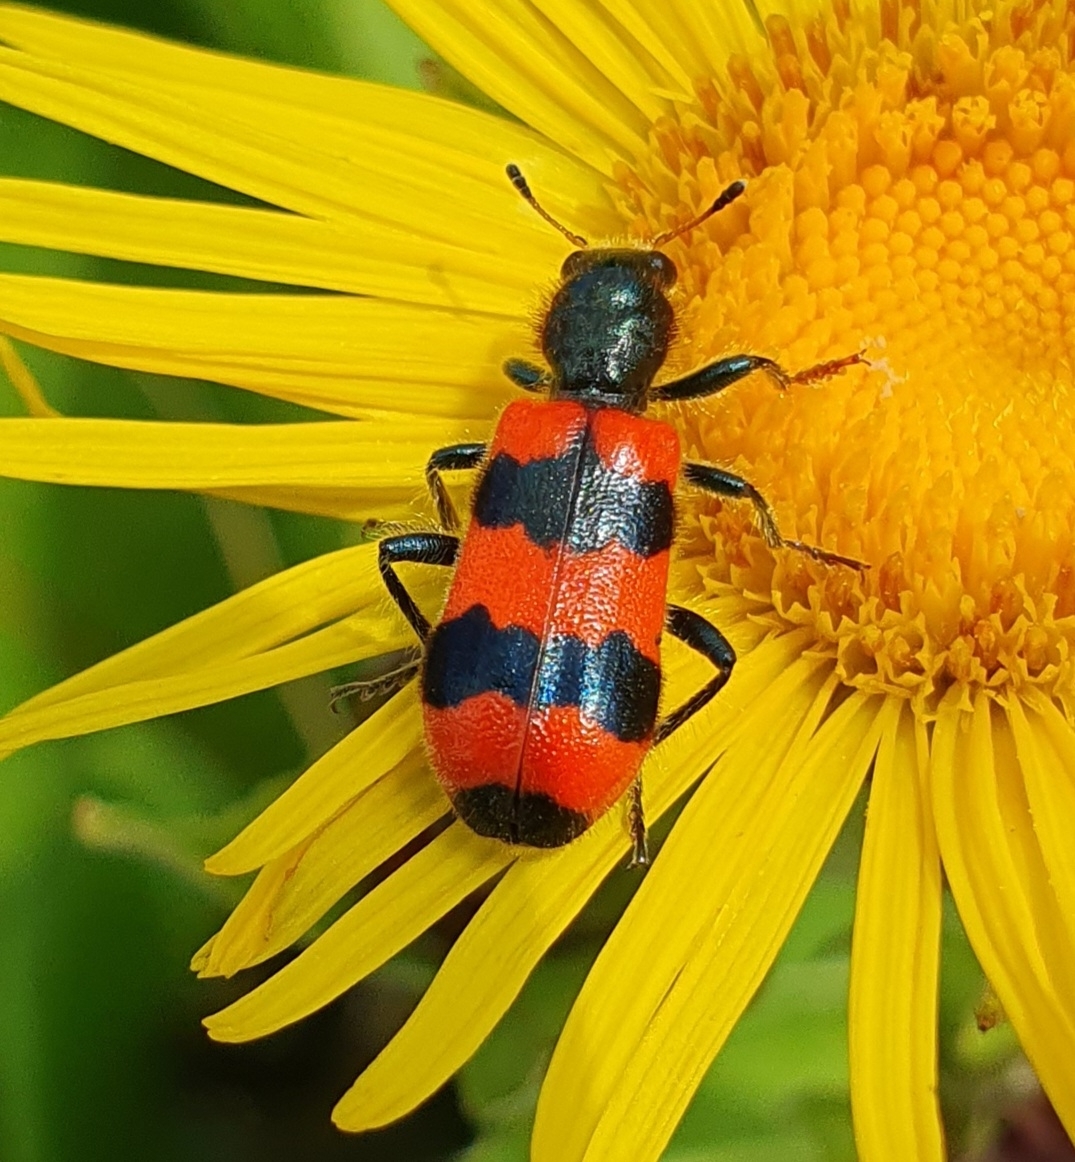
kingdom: Animalia
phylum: Arthropoda
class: Insecta
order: Coleoptera
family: Cleridae
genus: Trichodes
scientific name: Trichodes apiarius
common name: Bee-eating beetle
